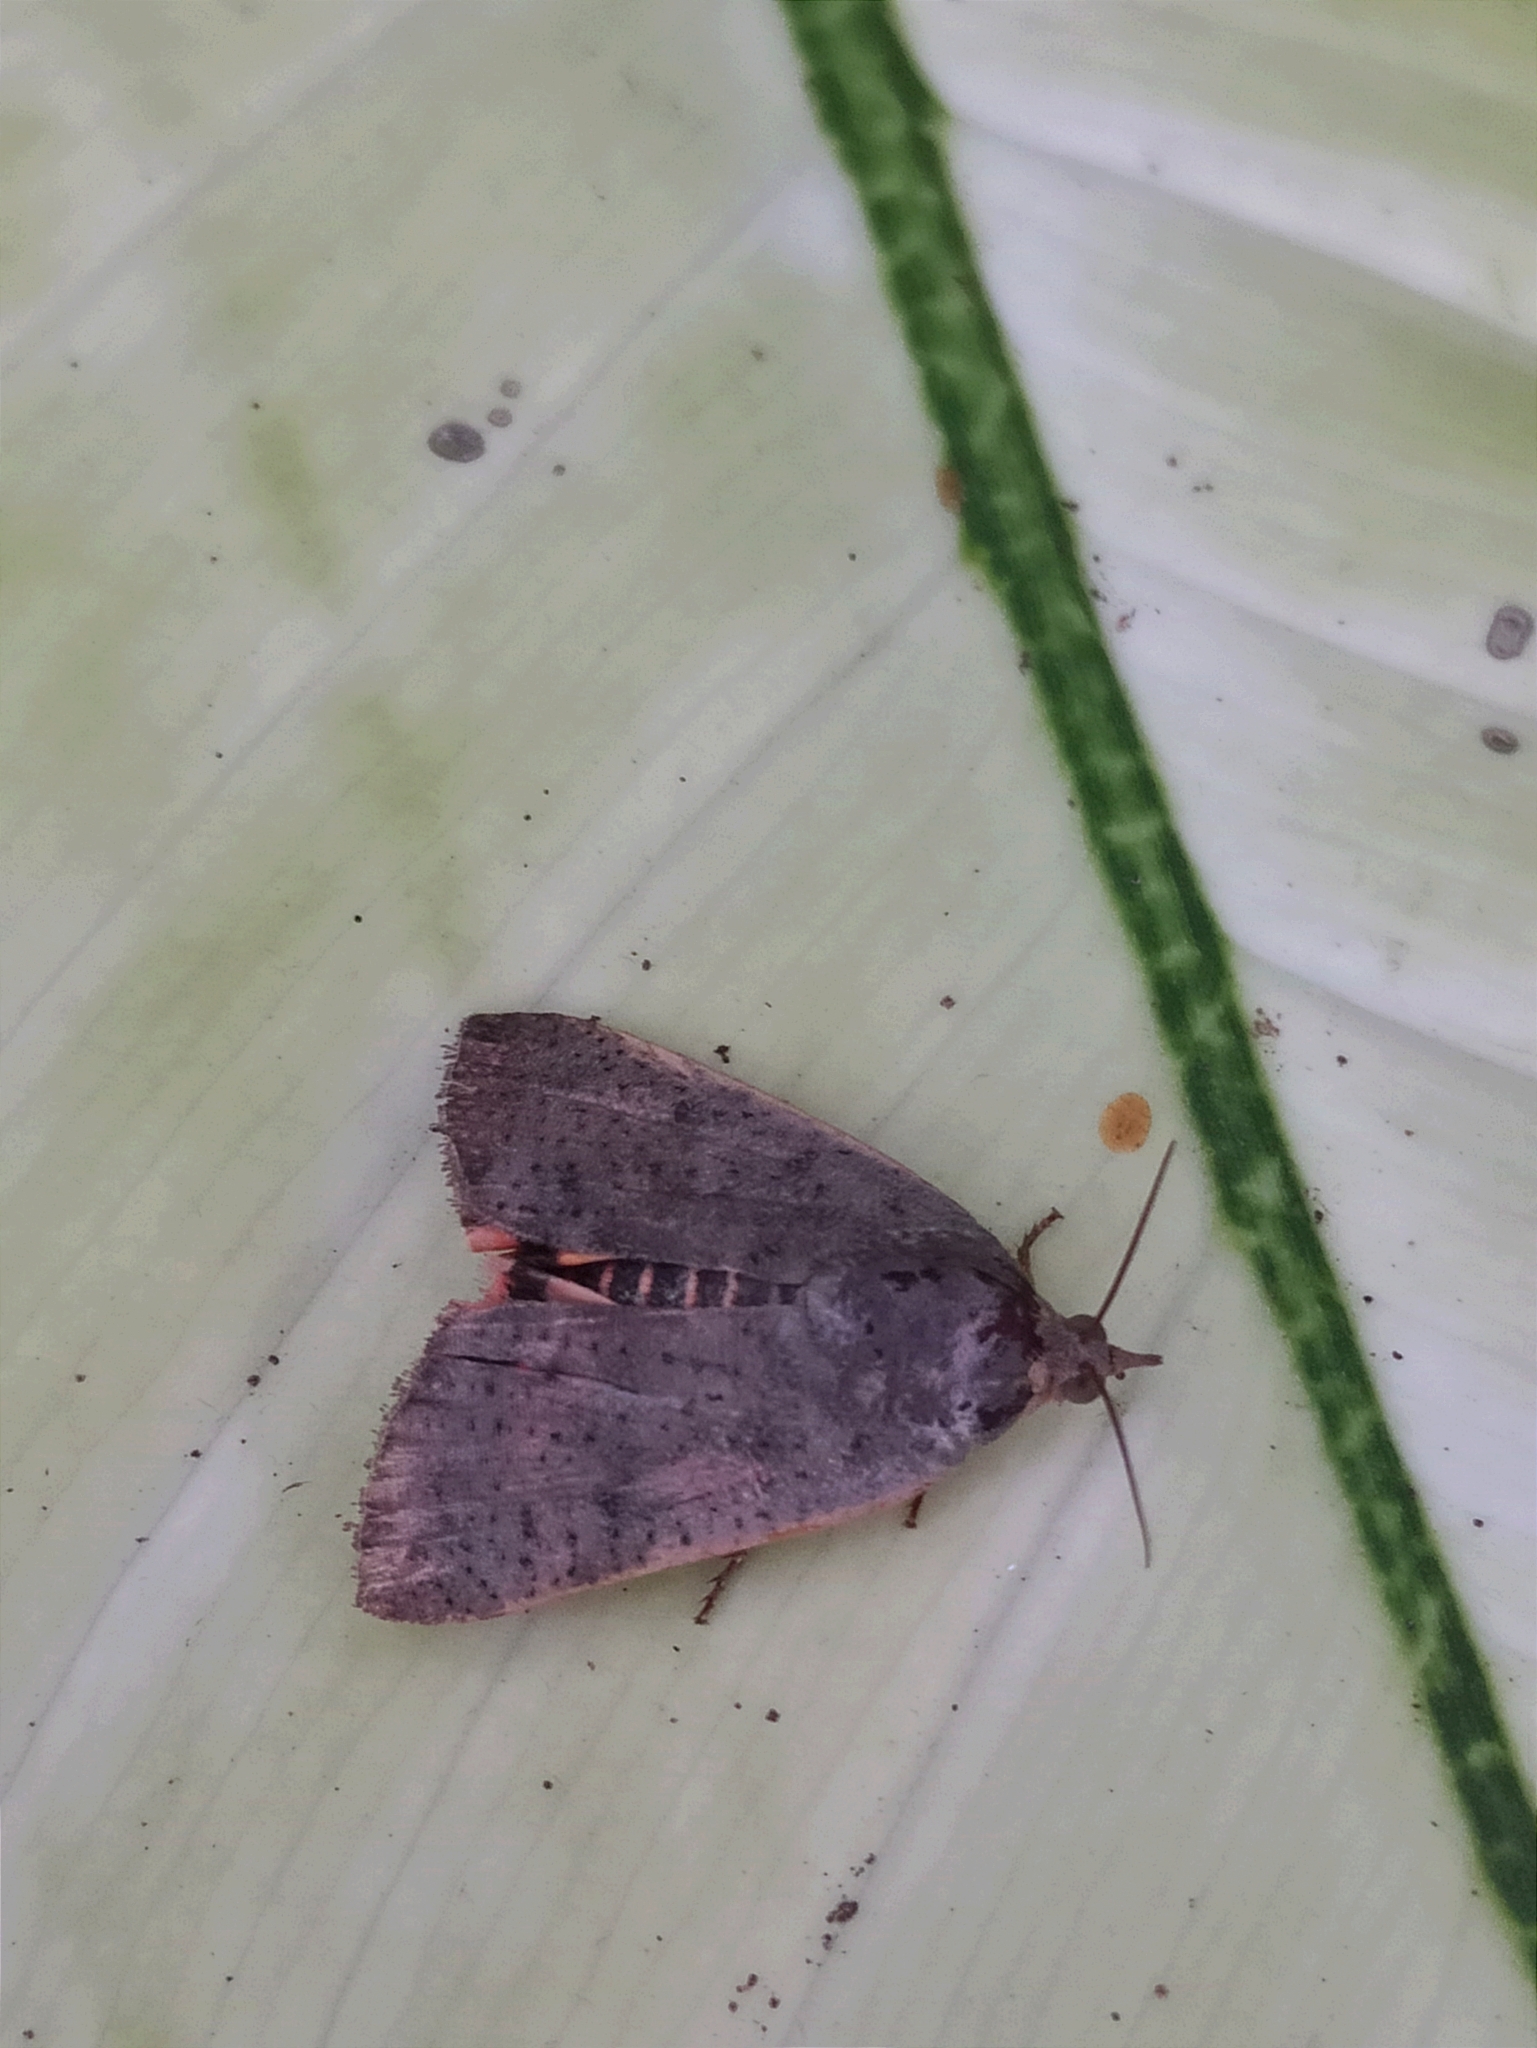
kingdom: Animalia
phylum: Arthropoda
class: Insecta
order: Lepidoptera
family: Hyblaeidae
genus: Hyblaea
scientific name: Hyblaea puera
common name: Teak defoliator moth
